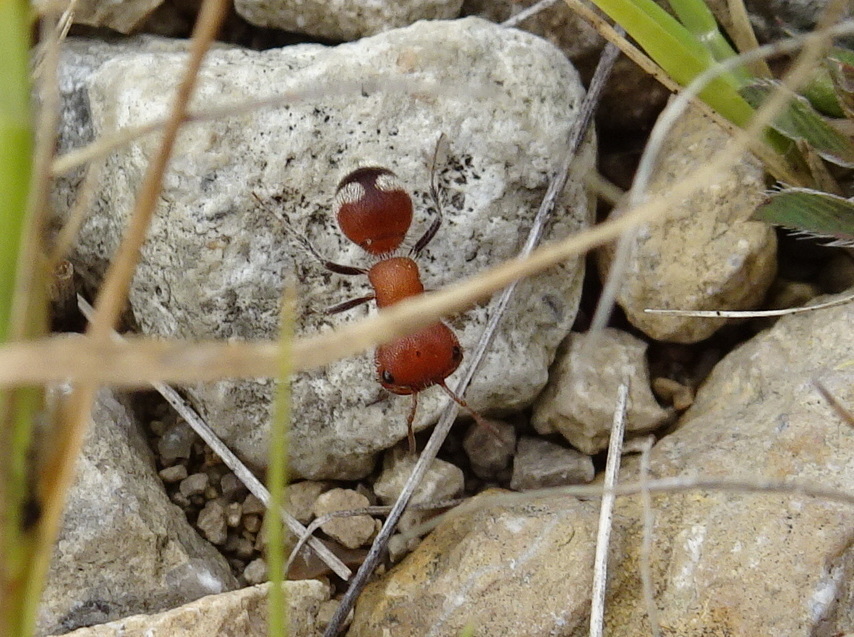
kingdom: Animalia
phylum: Arthropoda
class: Insecta
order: Hymenoptera
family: Mutillidae
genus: Myrmilloides
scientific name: Myrmilloides
